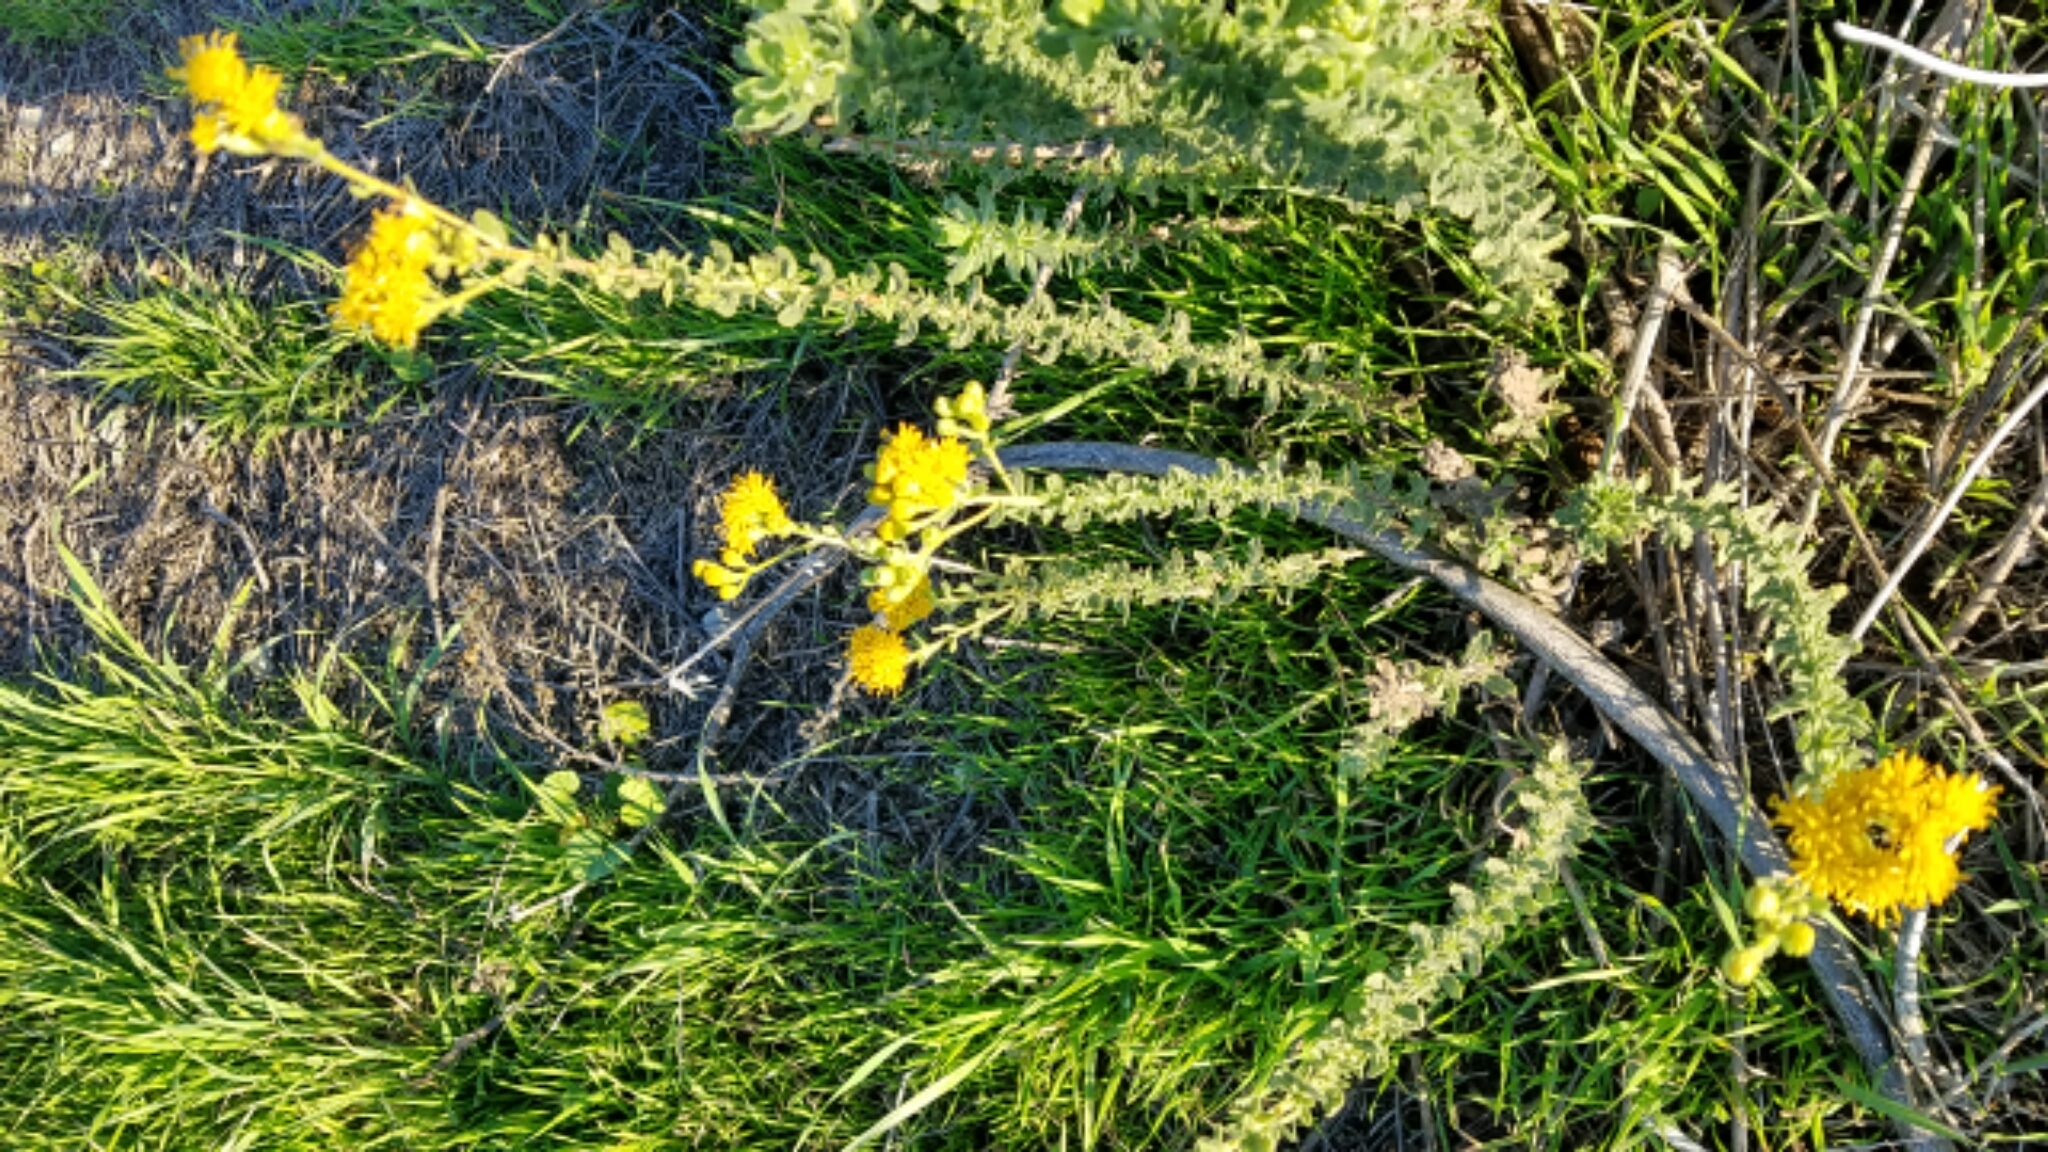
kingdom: Plantae
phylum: Tracheophyta
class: Magnoliopsida
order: Asterales
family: Asteraceae
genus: Isocoma
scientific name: Isocoma menziesii
